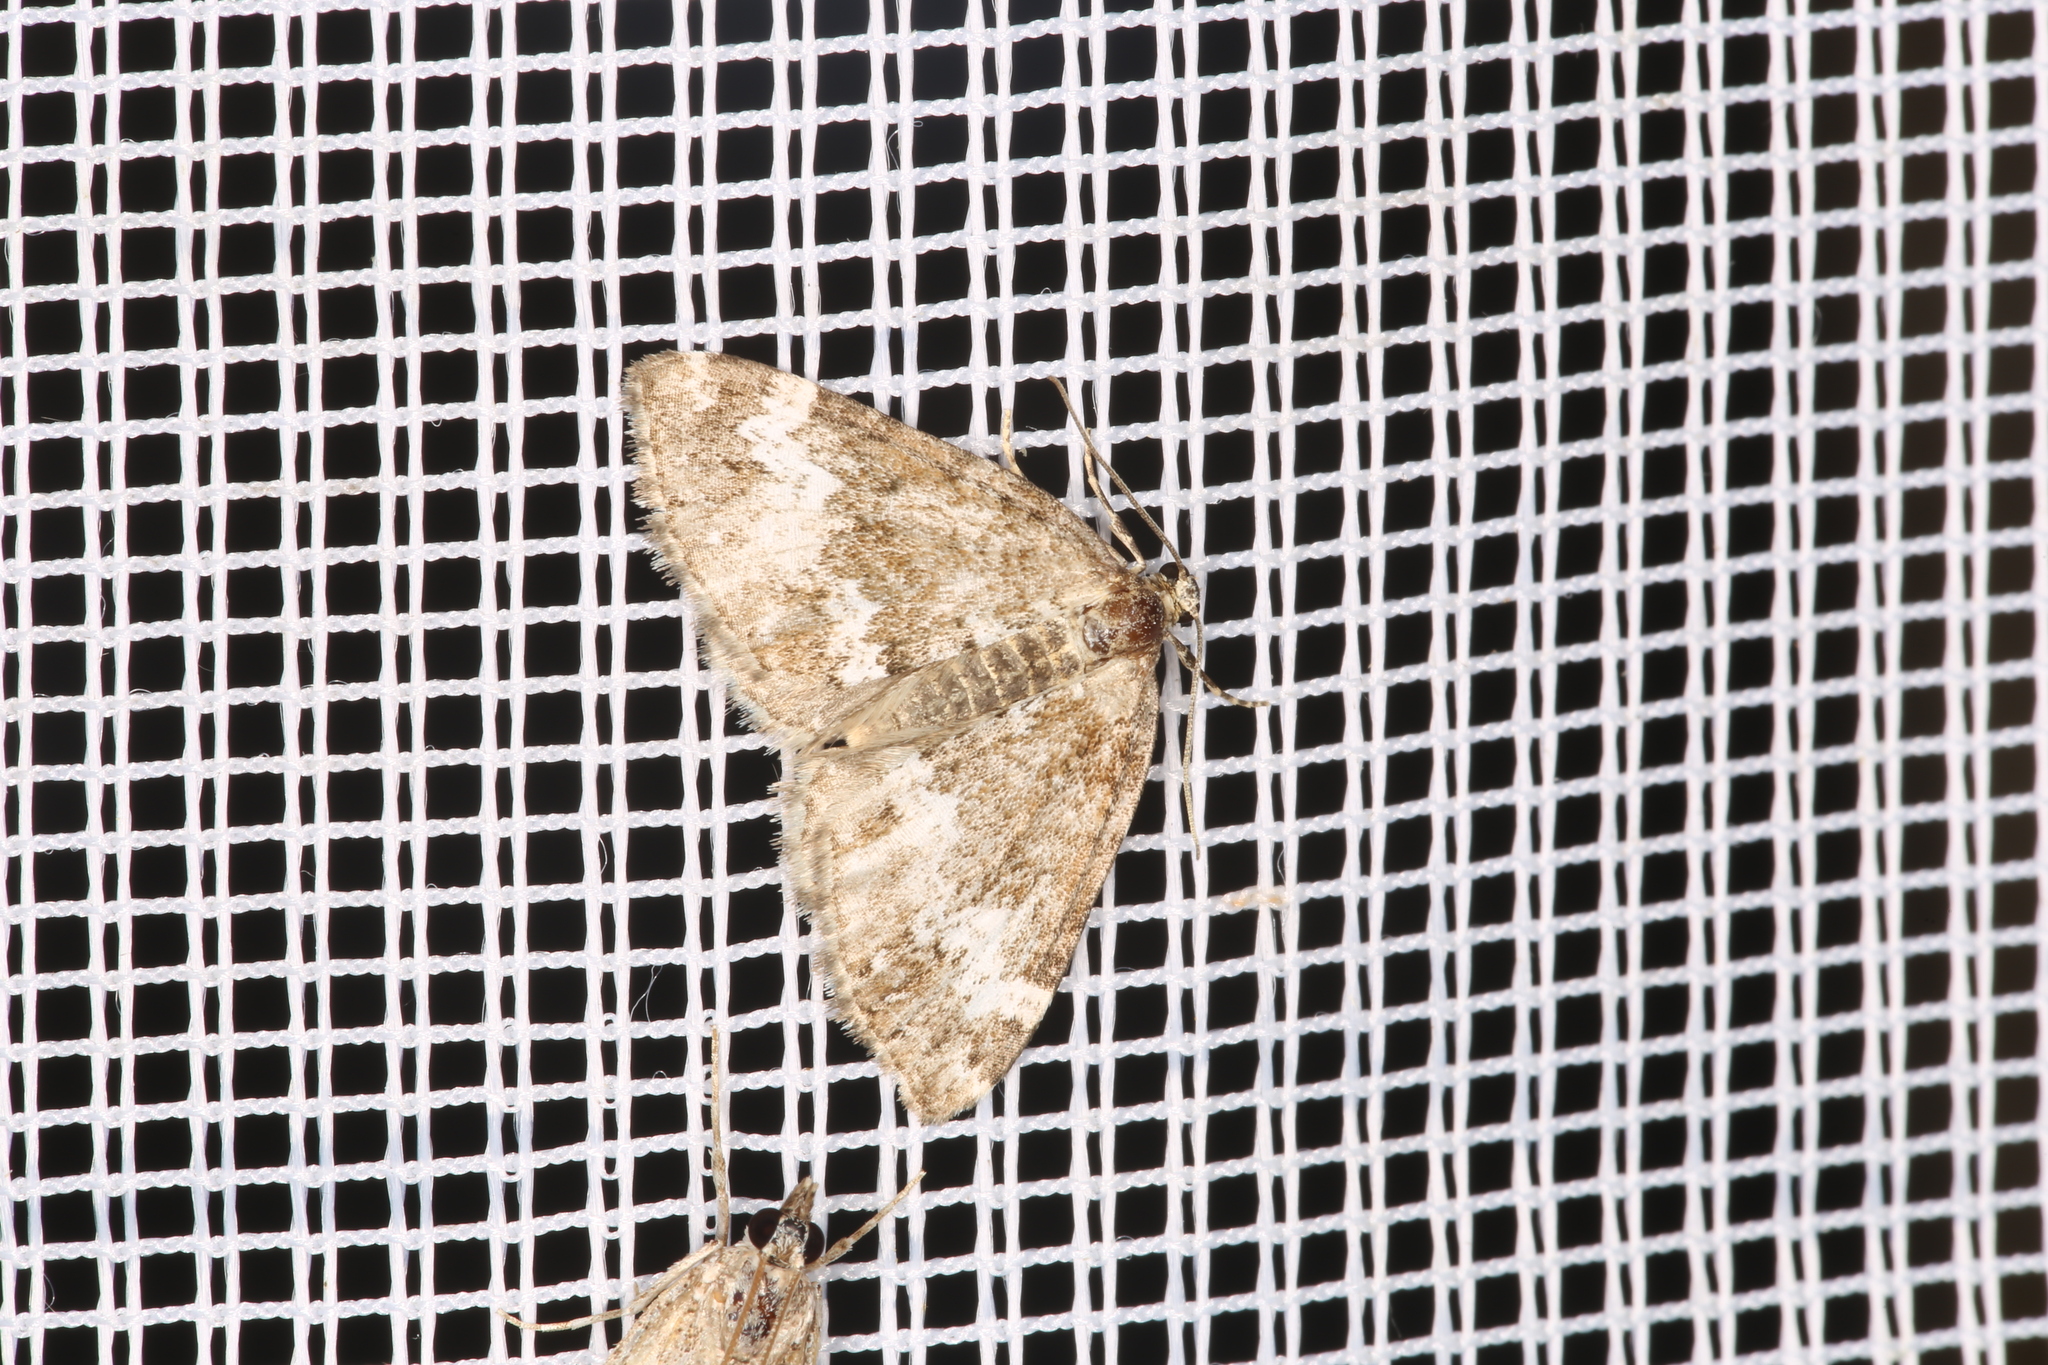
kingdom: Animalia
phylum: Arthropoda
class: Insecta
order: Lepidoptera
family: Geometridae
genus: Perizoma
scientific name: Perizoma alchemillata
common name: Small rivulet
